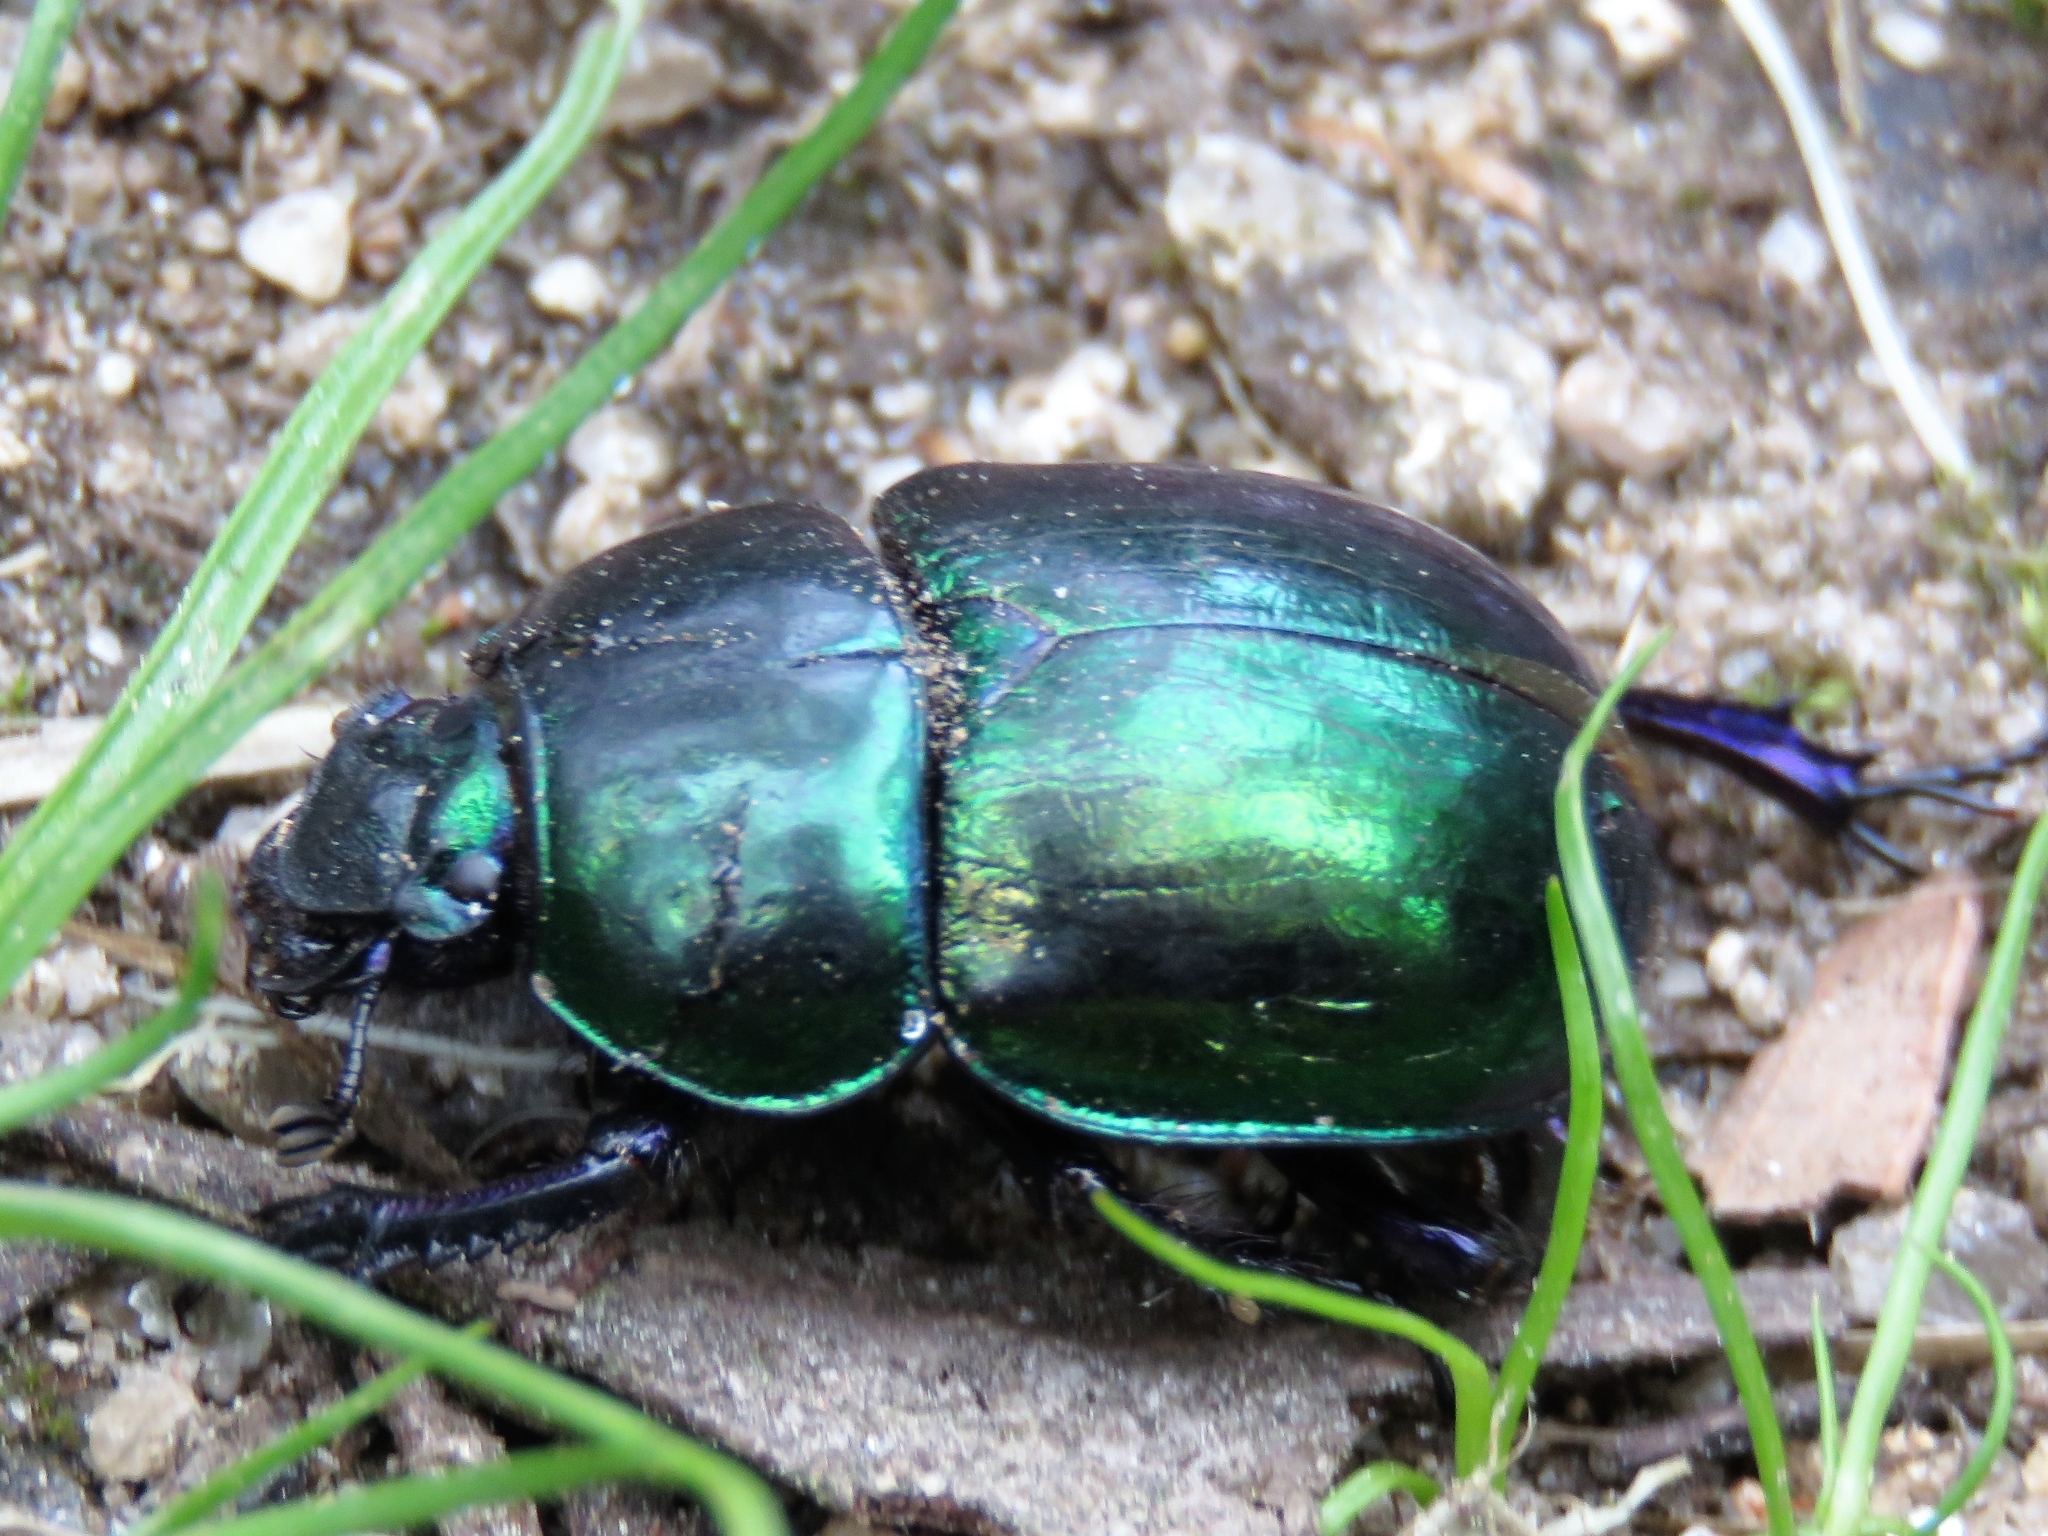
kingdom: Animalia
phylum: Arthropoda
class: Insecta
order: Coleoptera
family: Geotrupidae
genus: Trypocopris
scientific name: Trypocopris pyrenaeus
